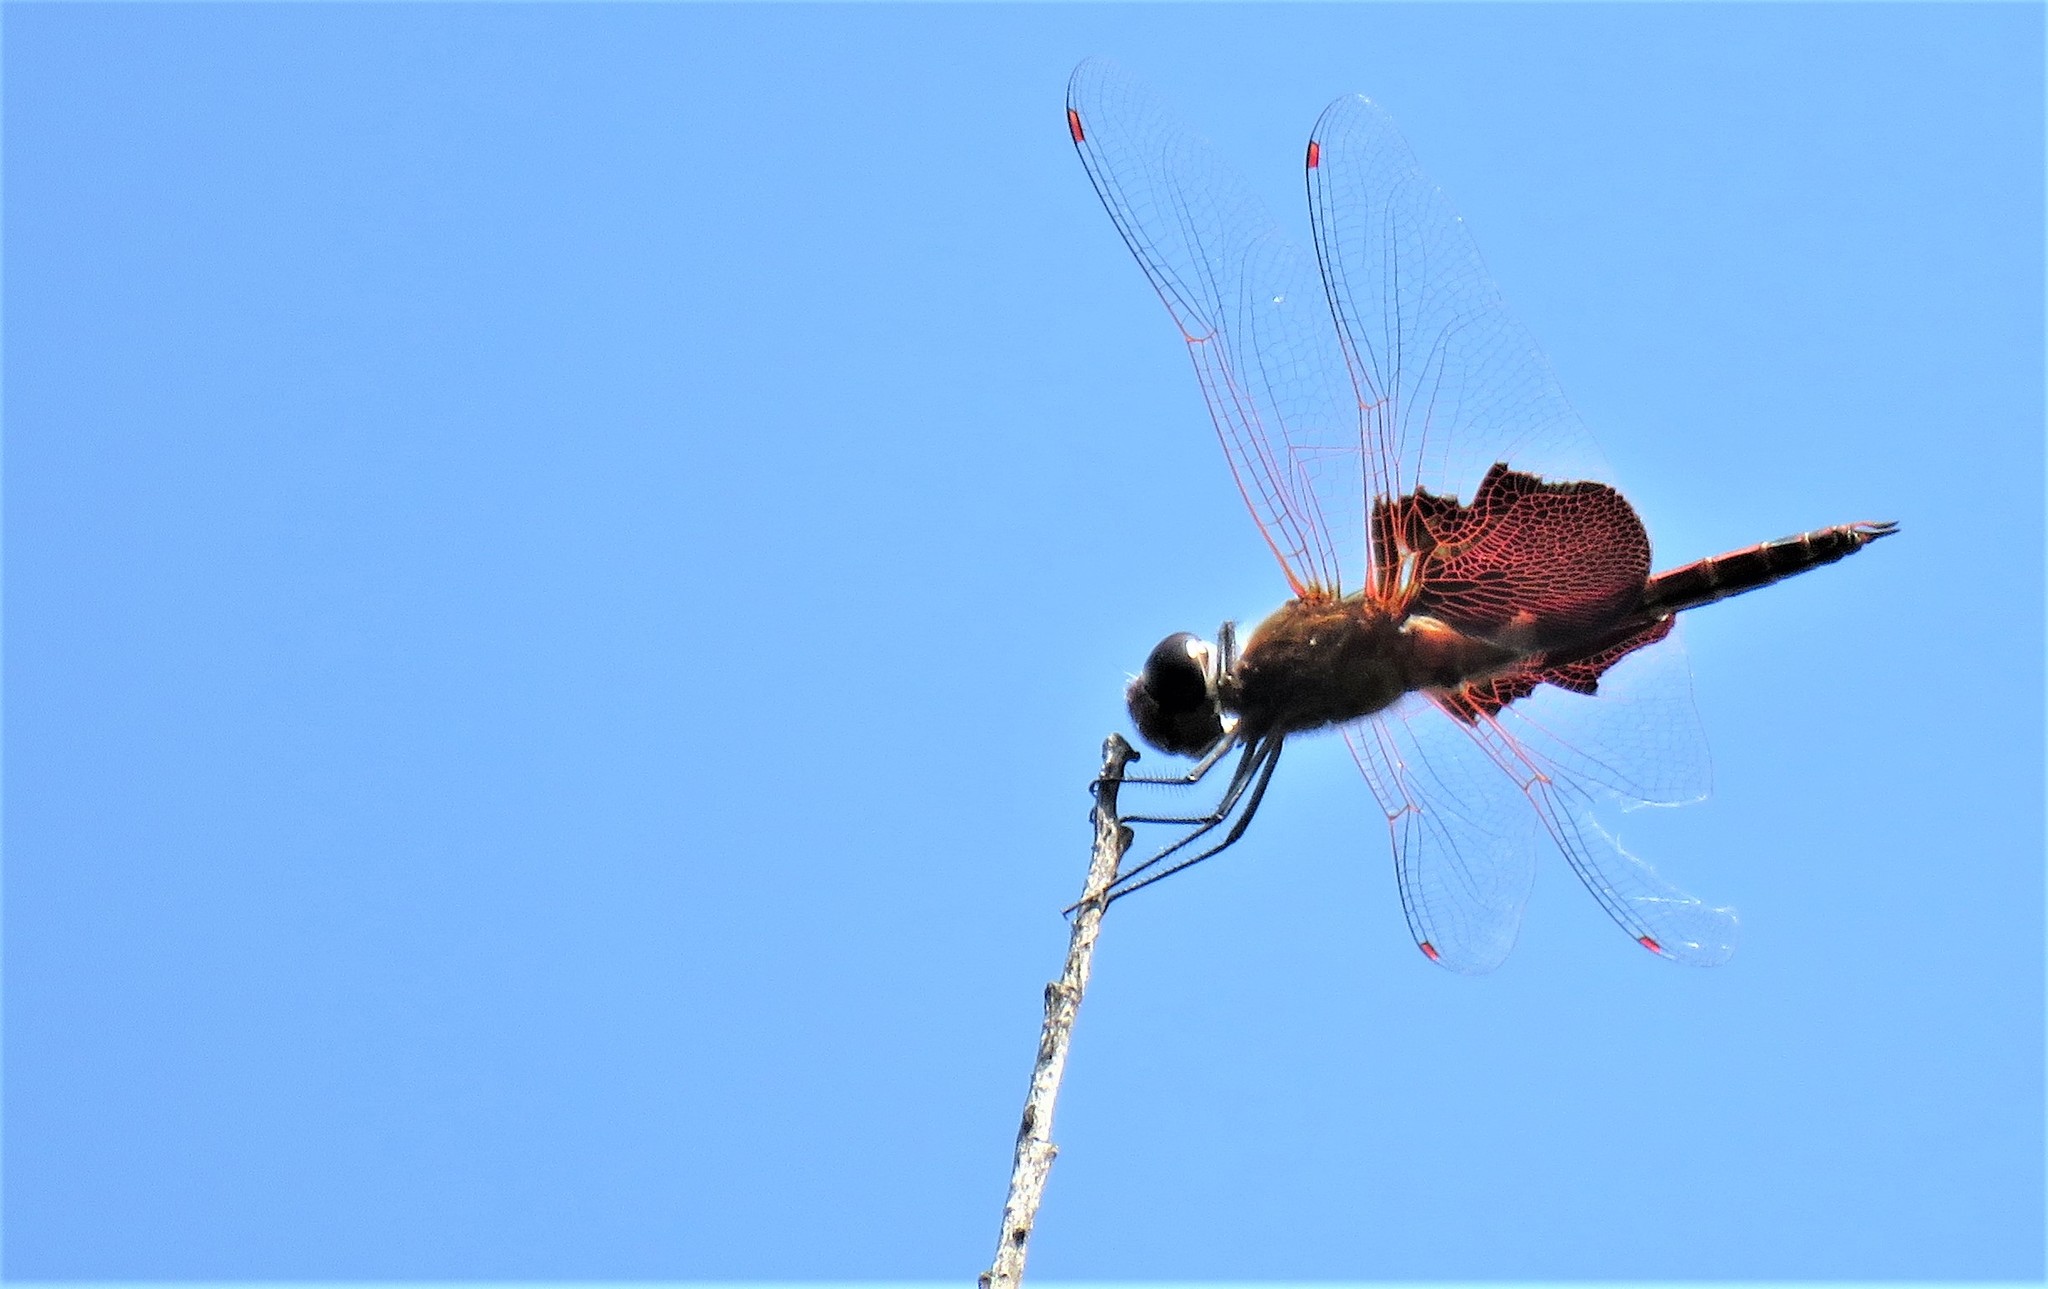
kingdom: Animalia
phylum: Arthropoda
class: Insecta
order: Odonata
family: Libellulidae
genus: Tramea
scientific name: Tramea carolina
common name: Carolina saddlebags
